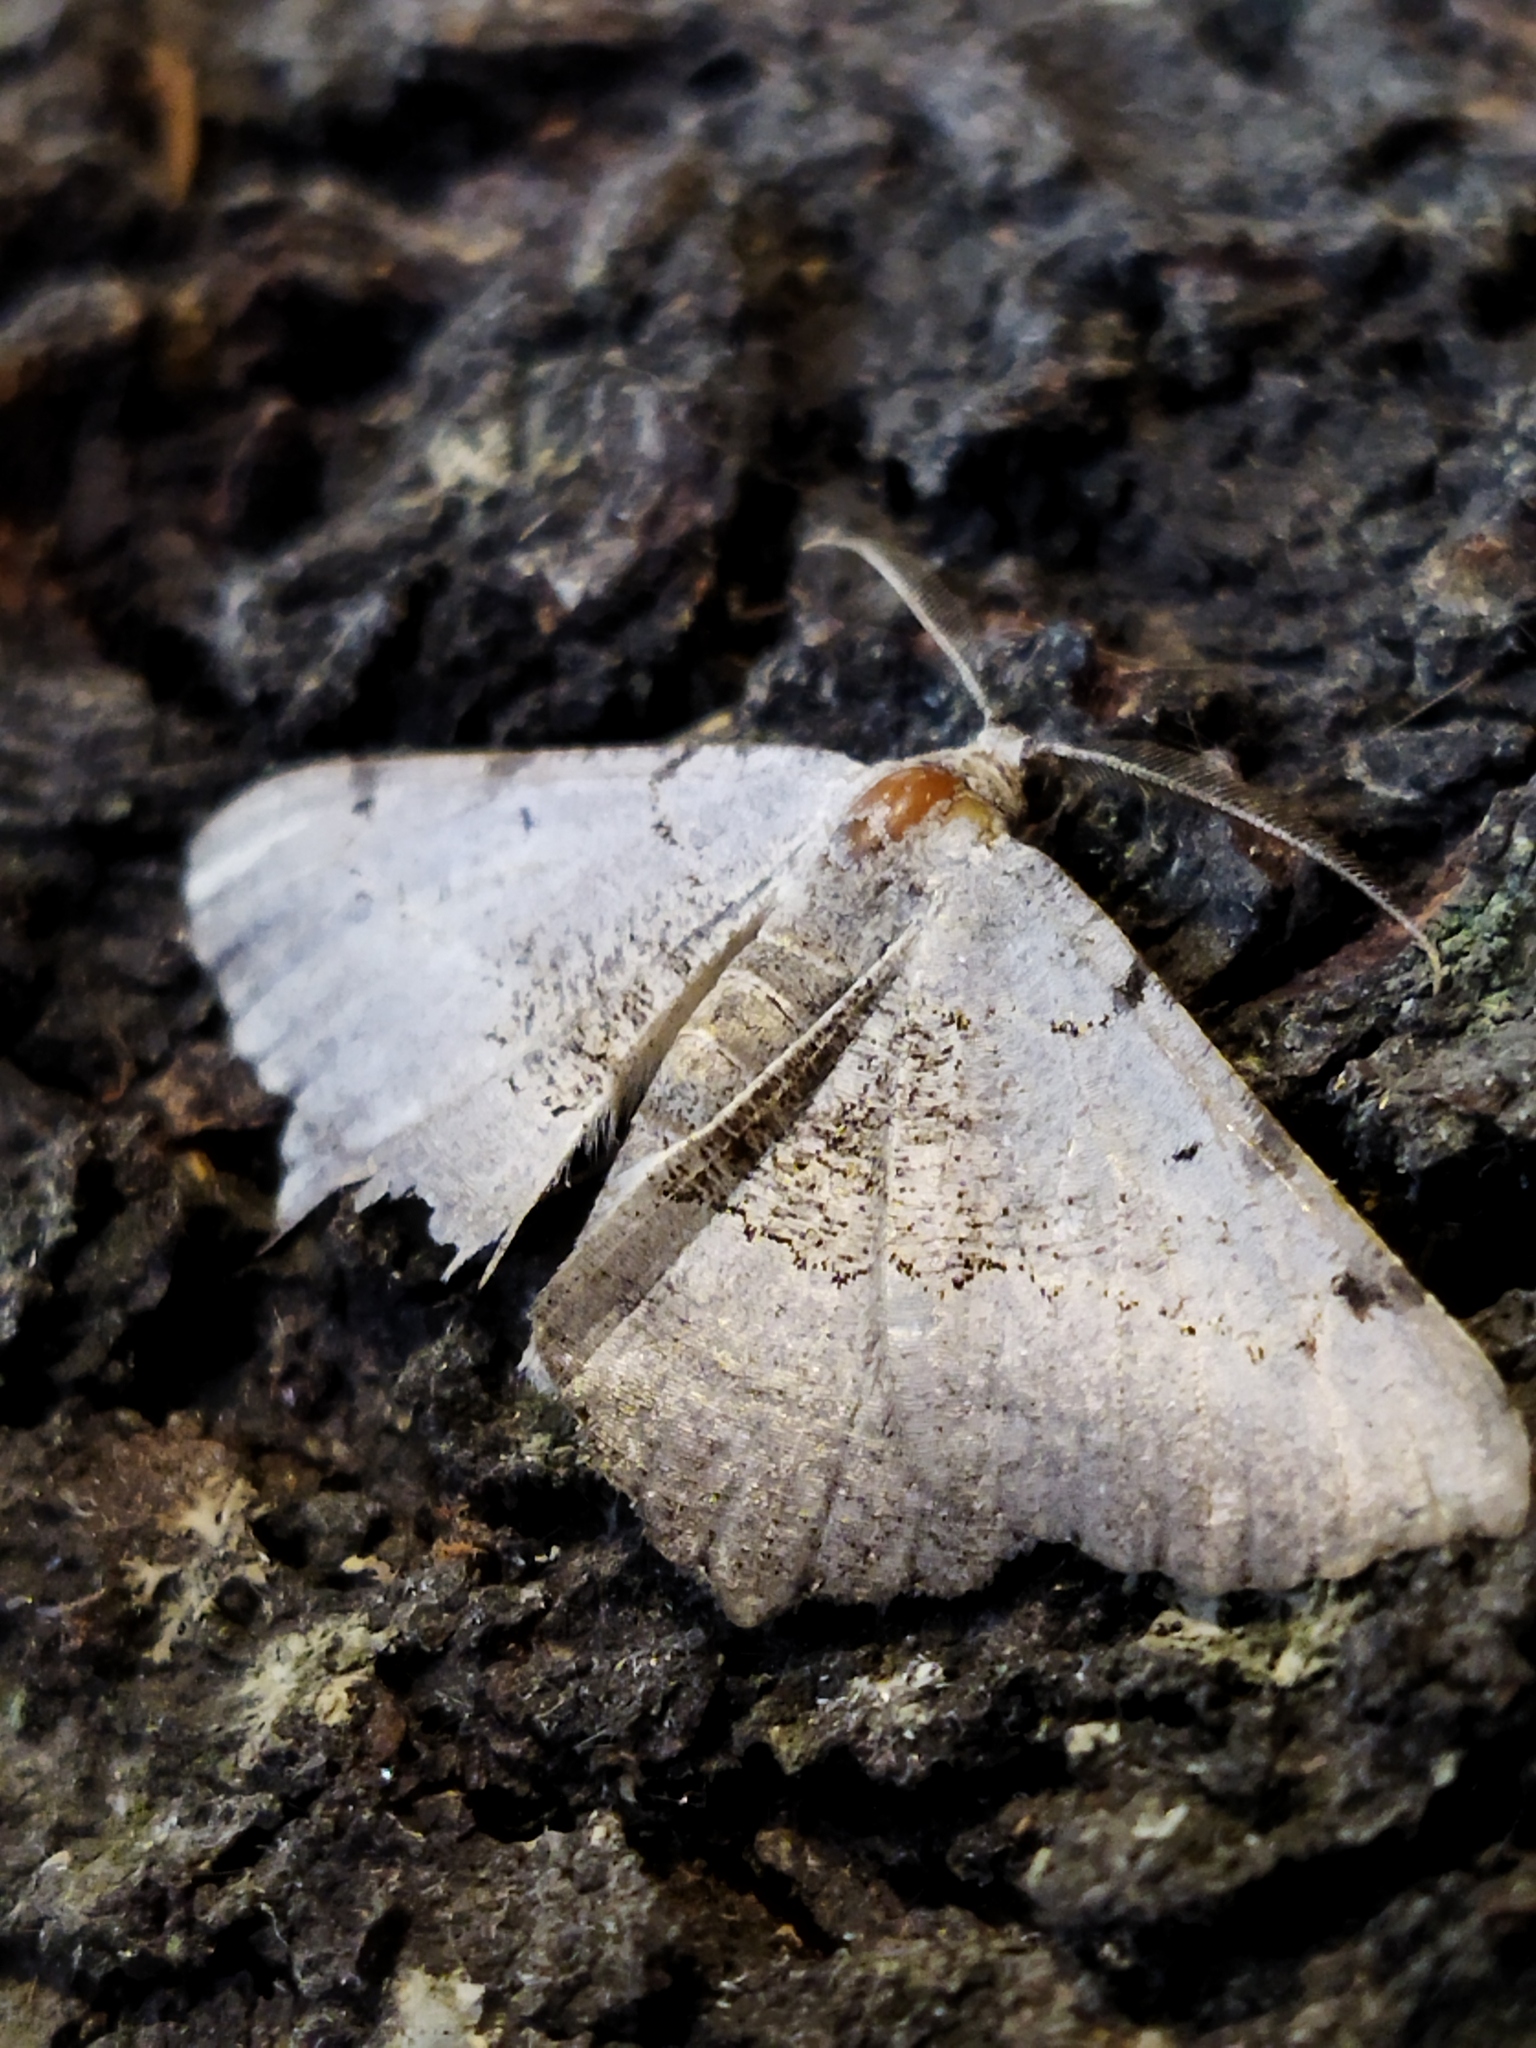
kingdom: Animalia
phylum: Arthropoda
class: Insecta
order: Lepidoptera
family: Geometridae
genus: Neognopharmia
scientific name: Neognopharmia stevenaria
